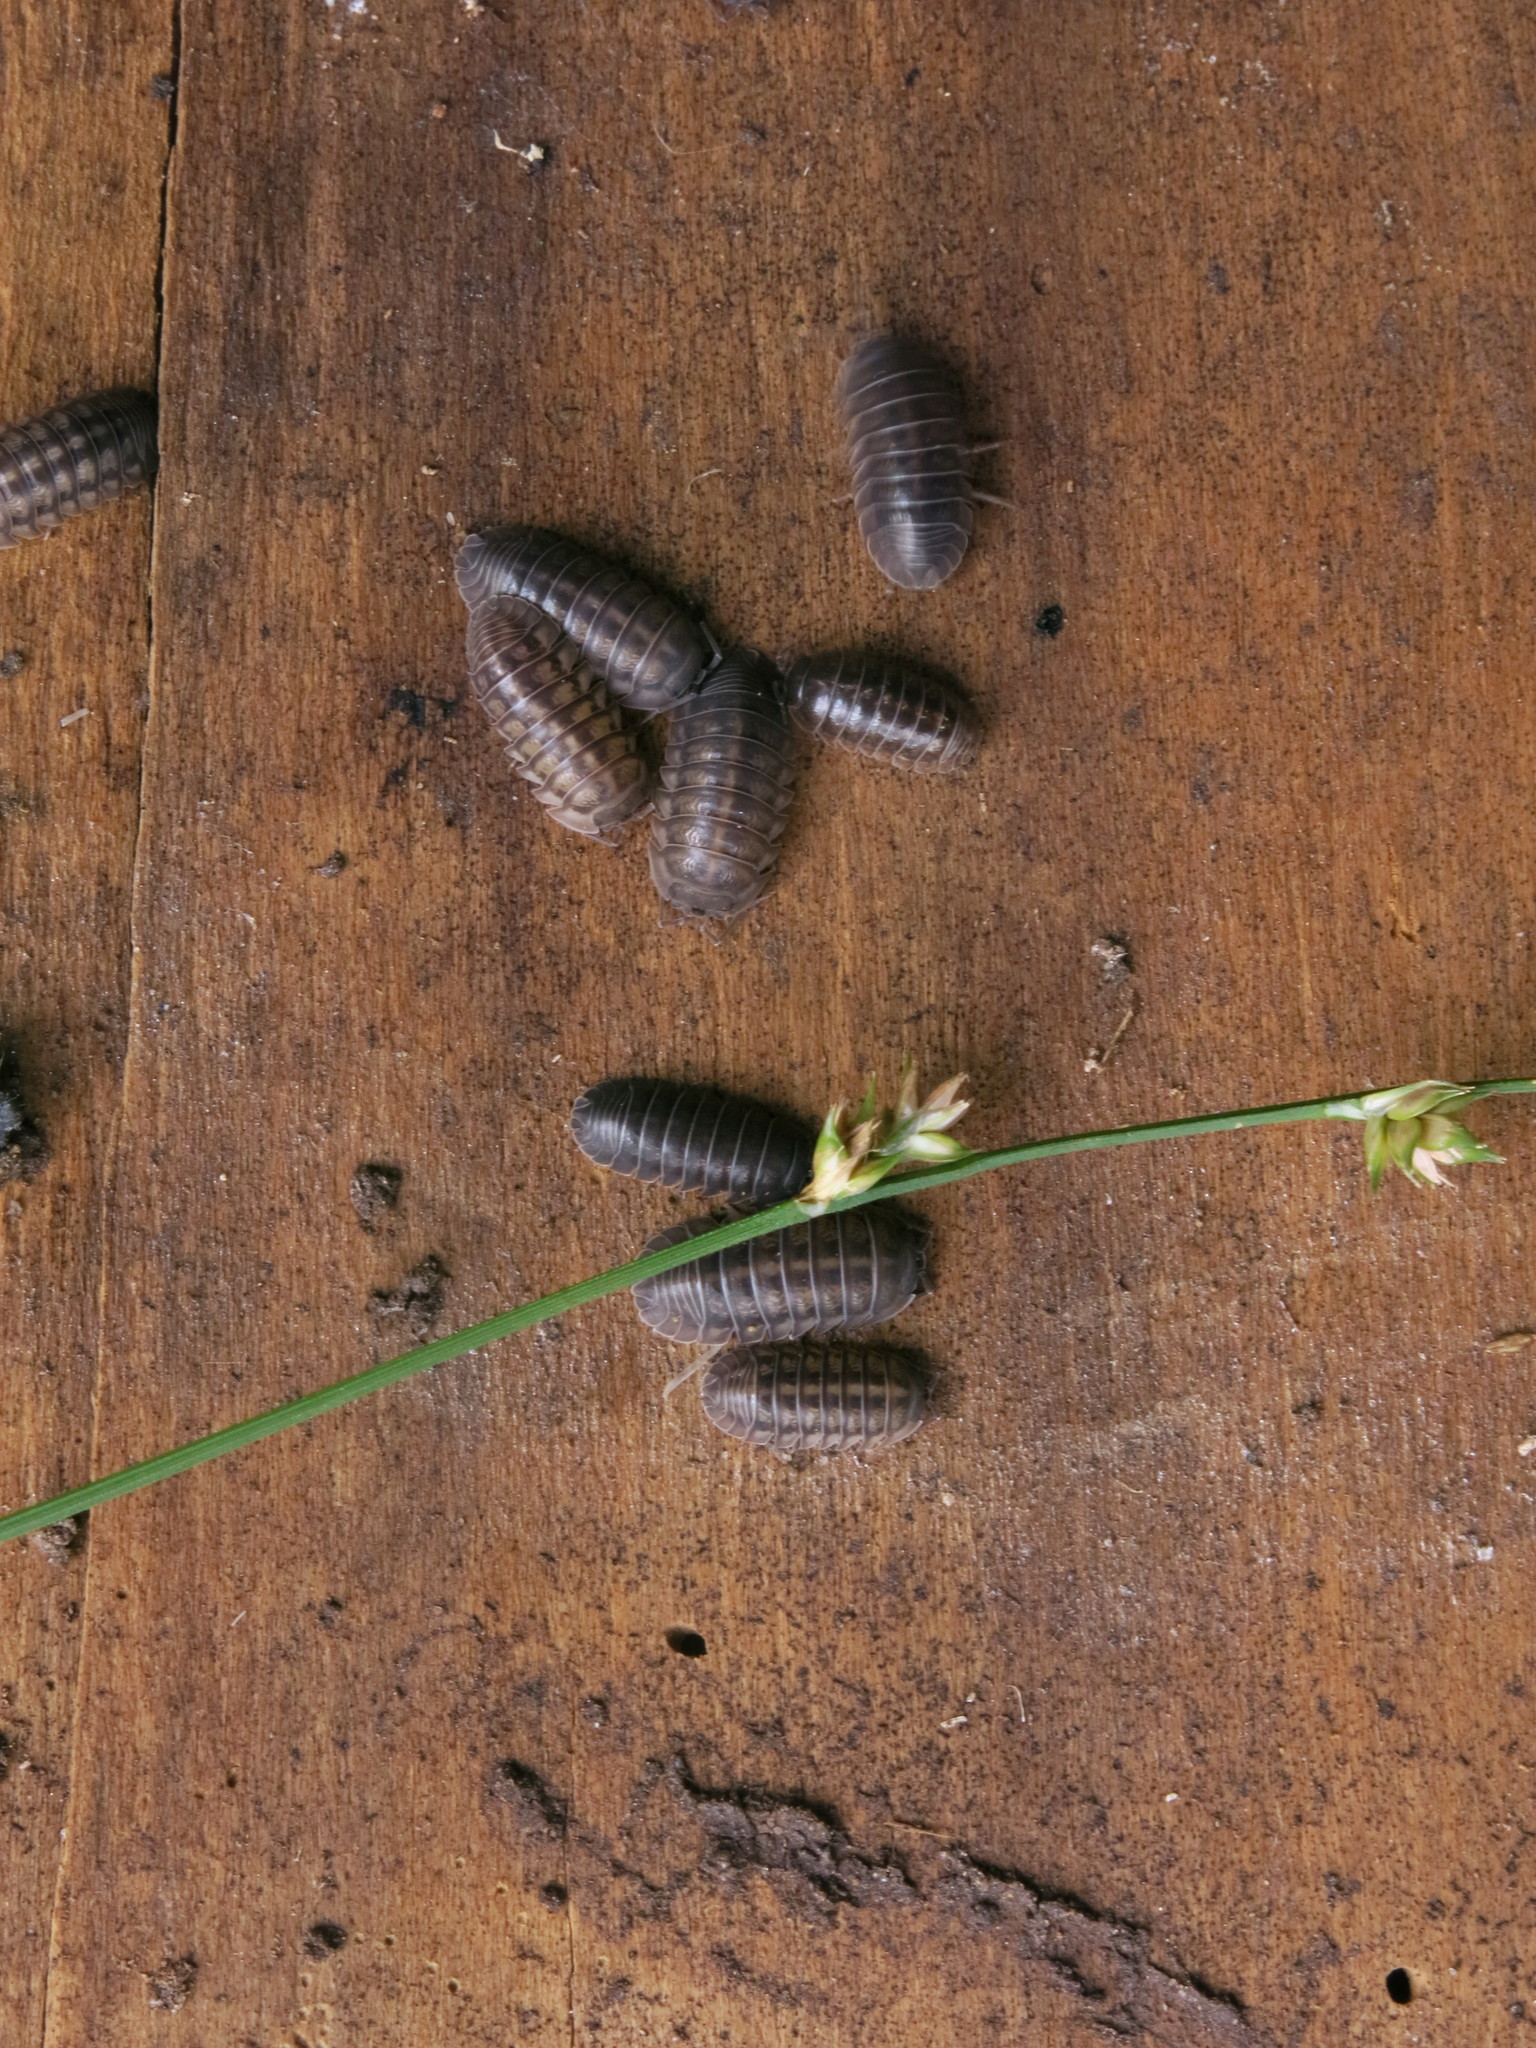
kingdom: Animalia
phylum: Arthropoda
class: Malacostraca
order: Isopoda
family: Armadillidiidae
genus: Armadillidium
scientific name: Armadillidium nasatum
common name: Isopod
